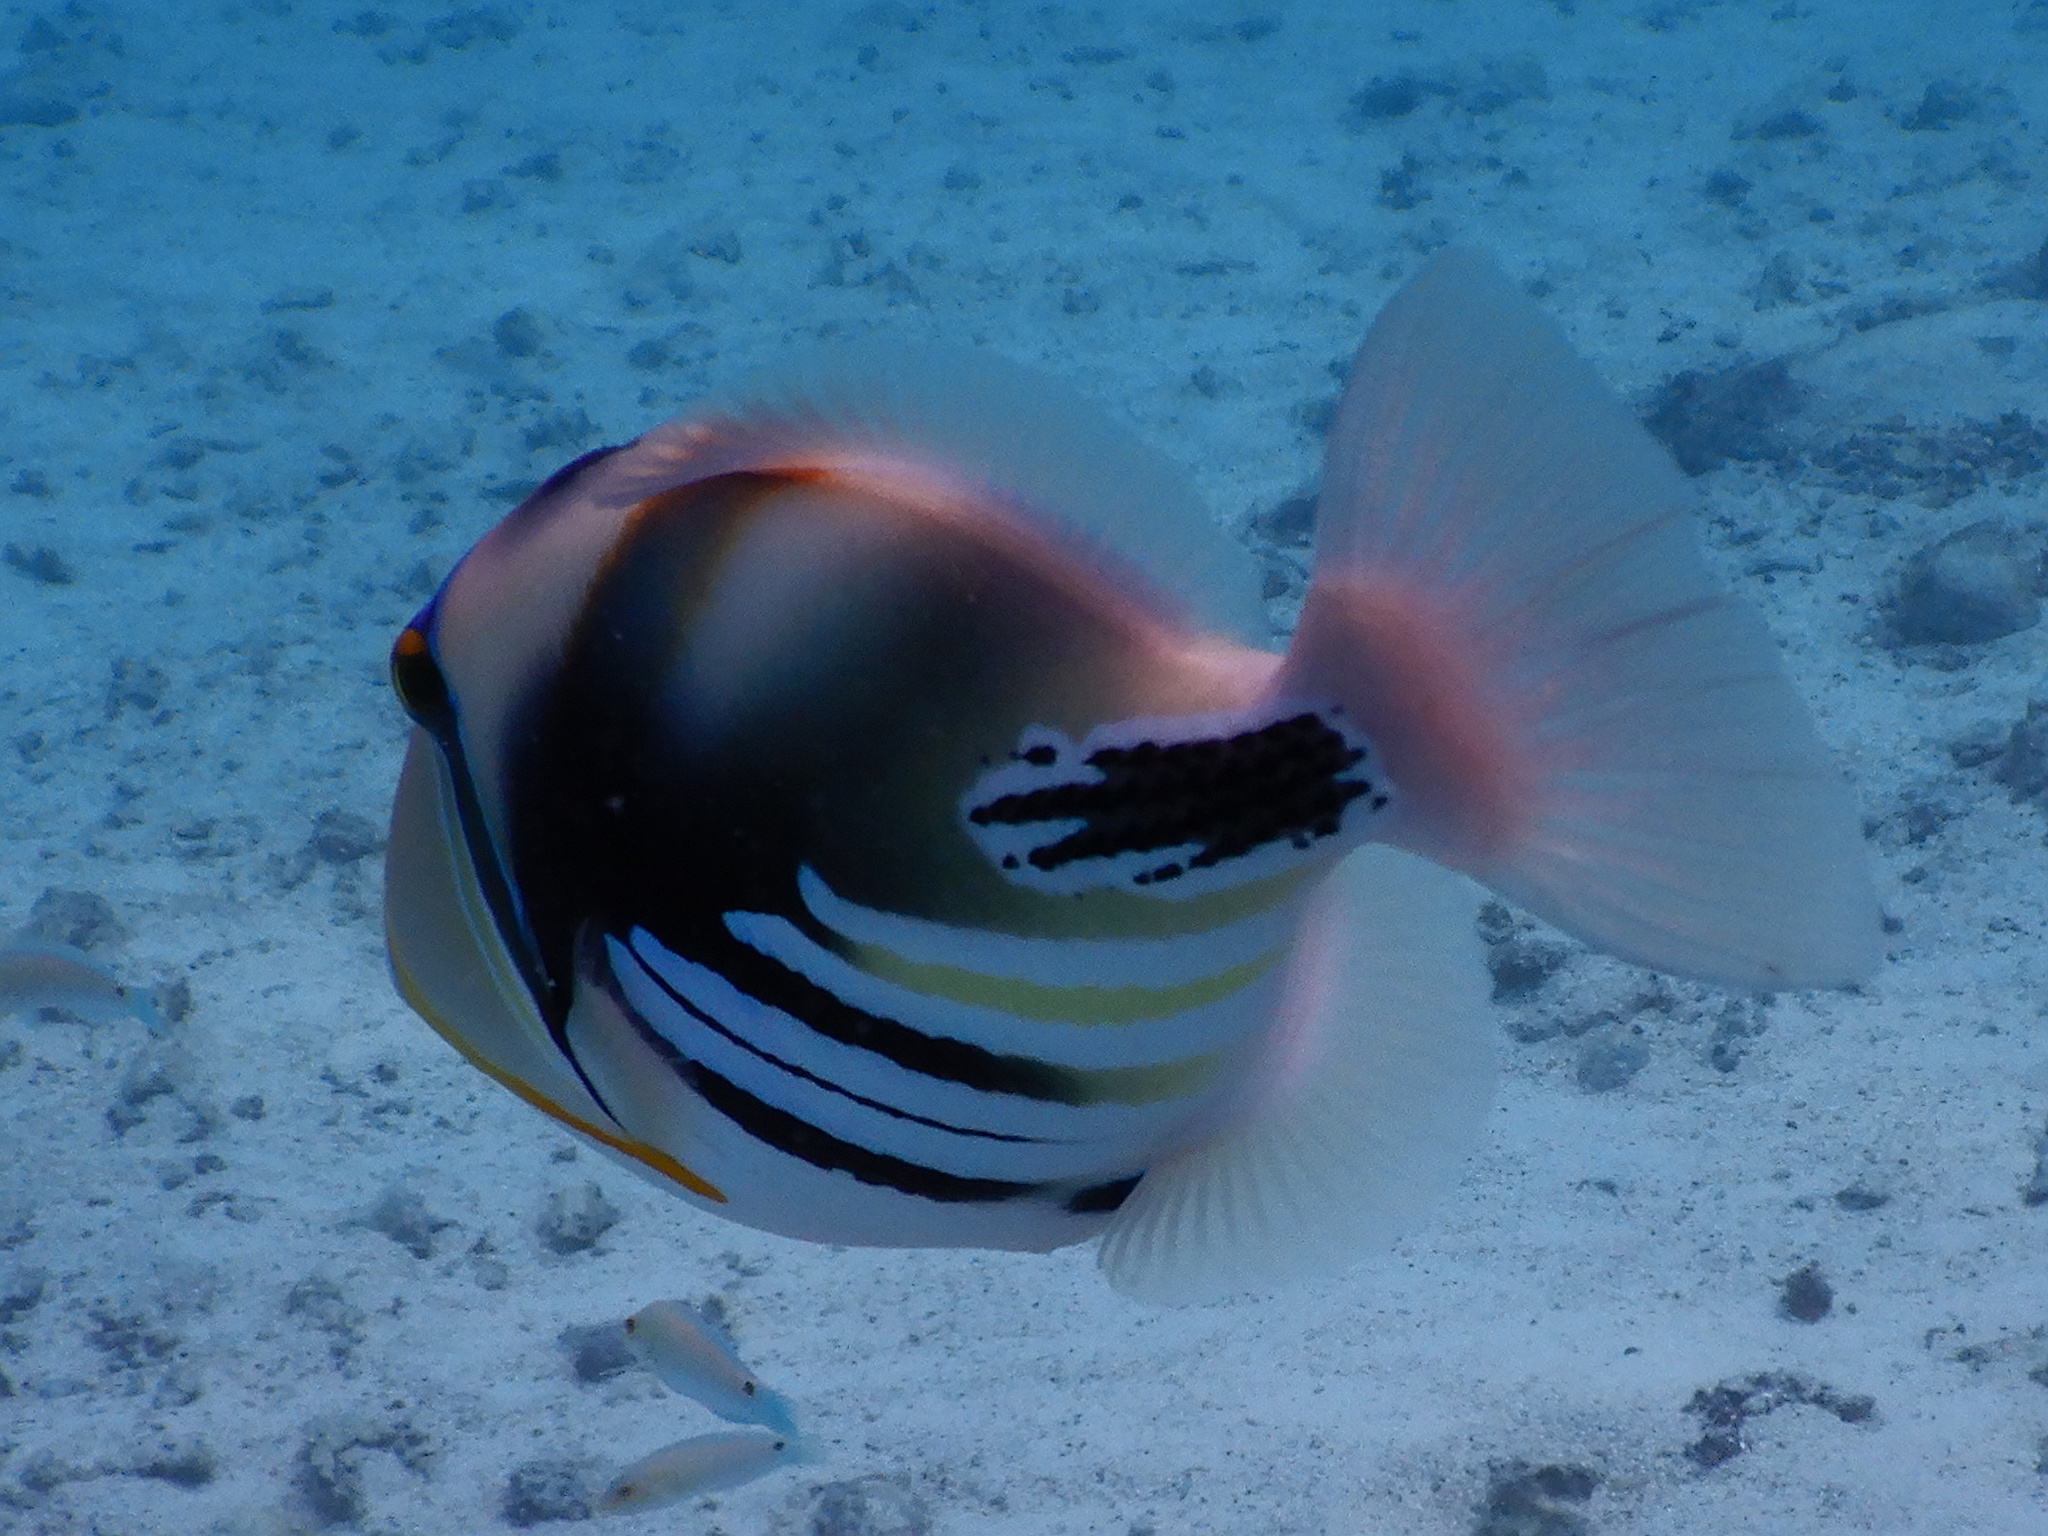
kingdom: Animalia
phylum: Chordata
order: Tetraodontiformes
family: Balistidae
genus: Rhinecanthus
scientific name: Rhinecanthus aculeatus
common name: White-banded triggerfish
